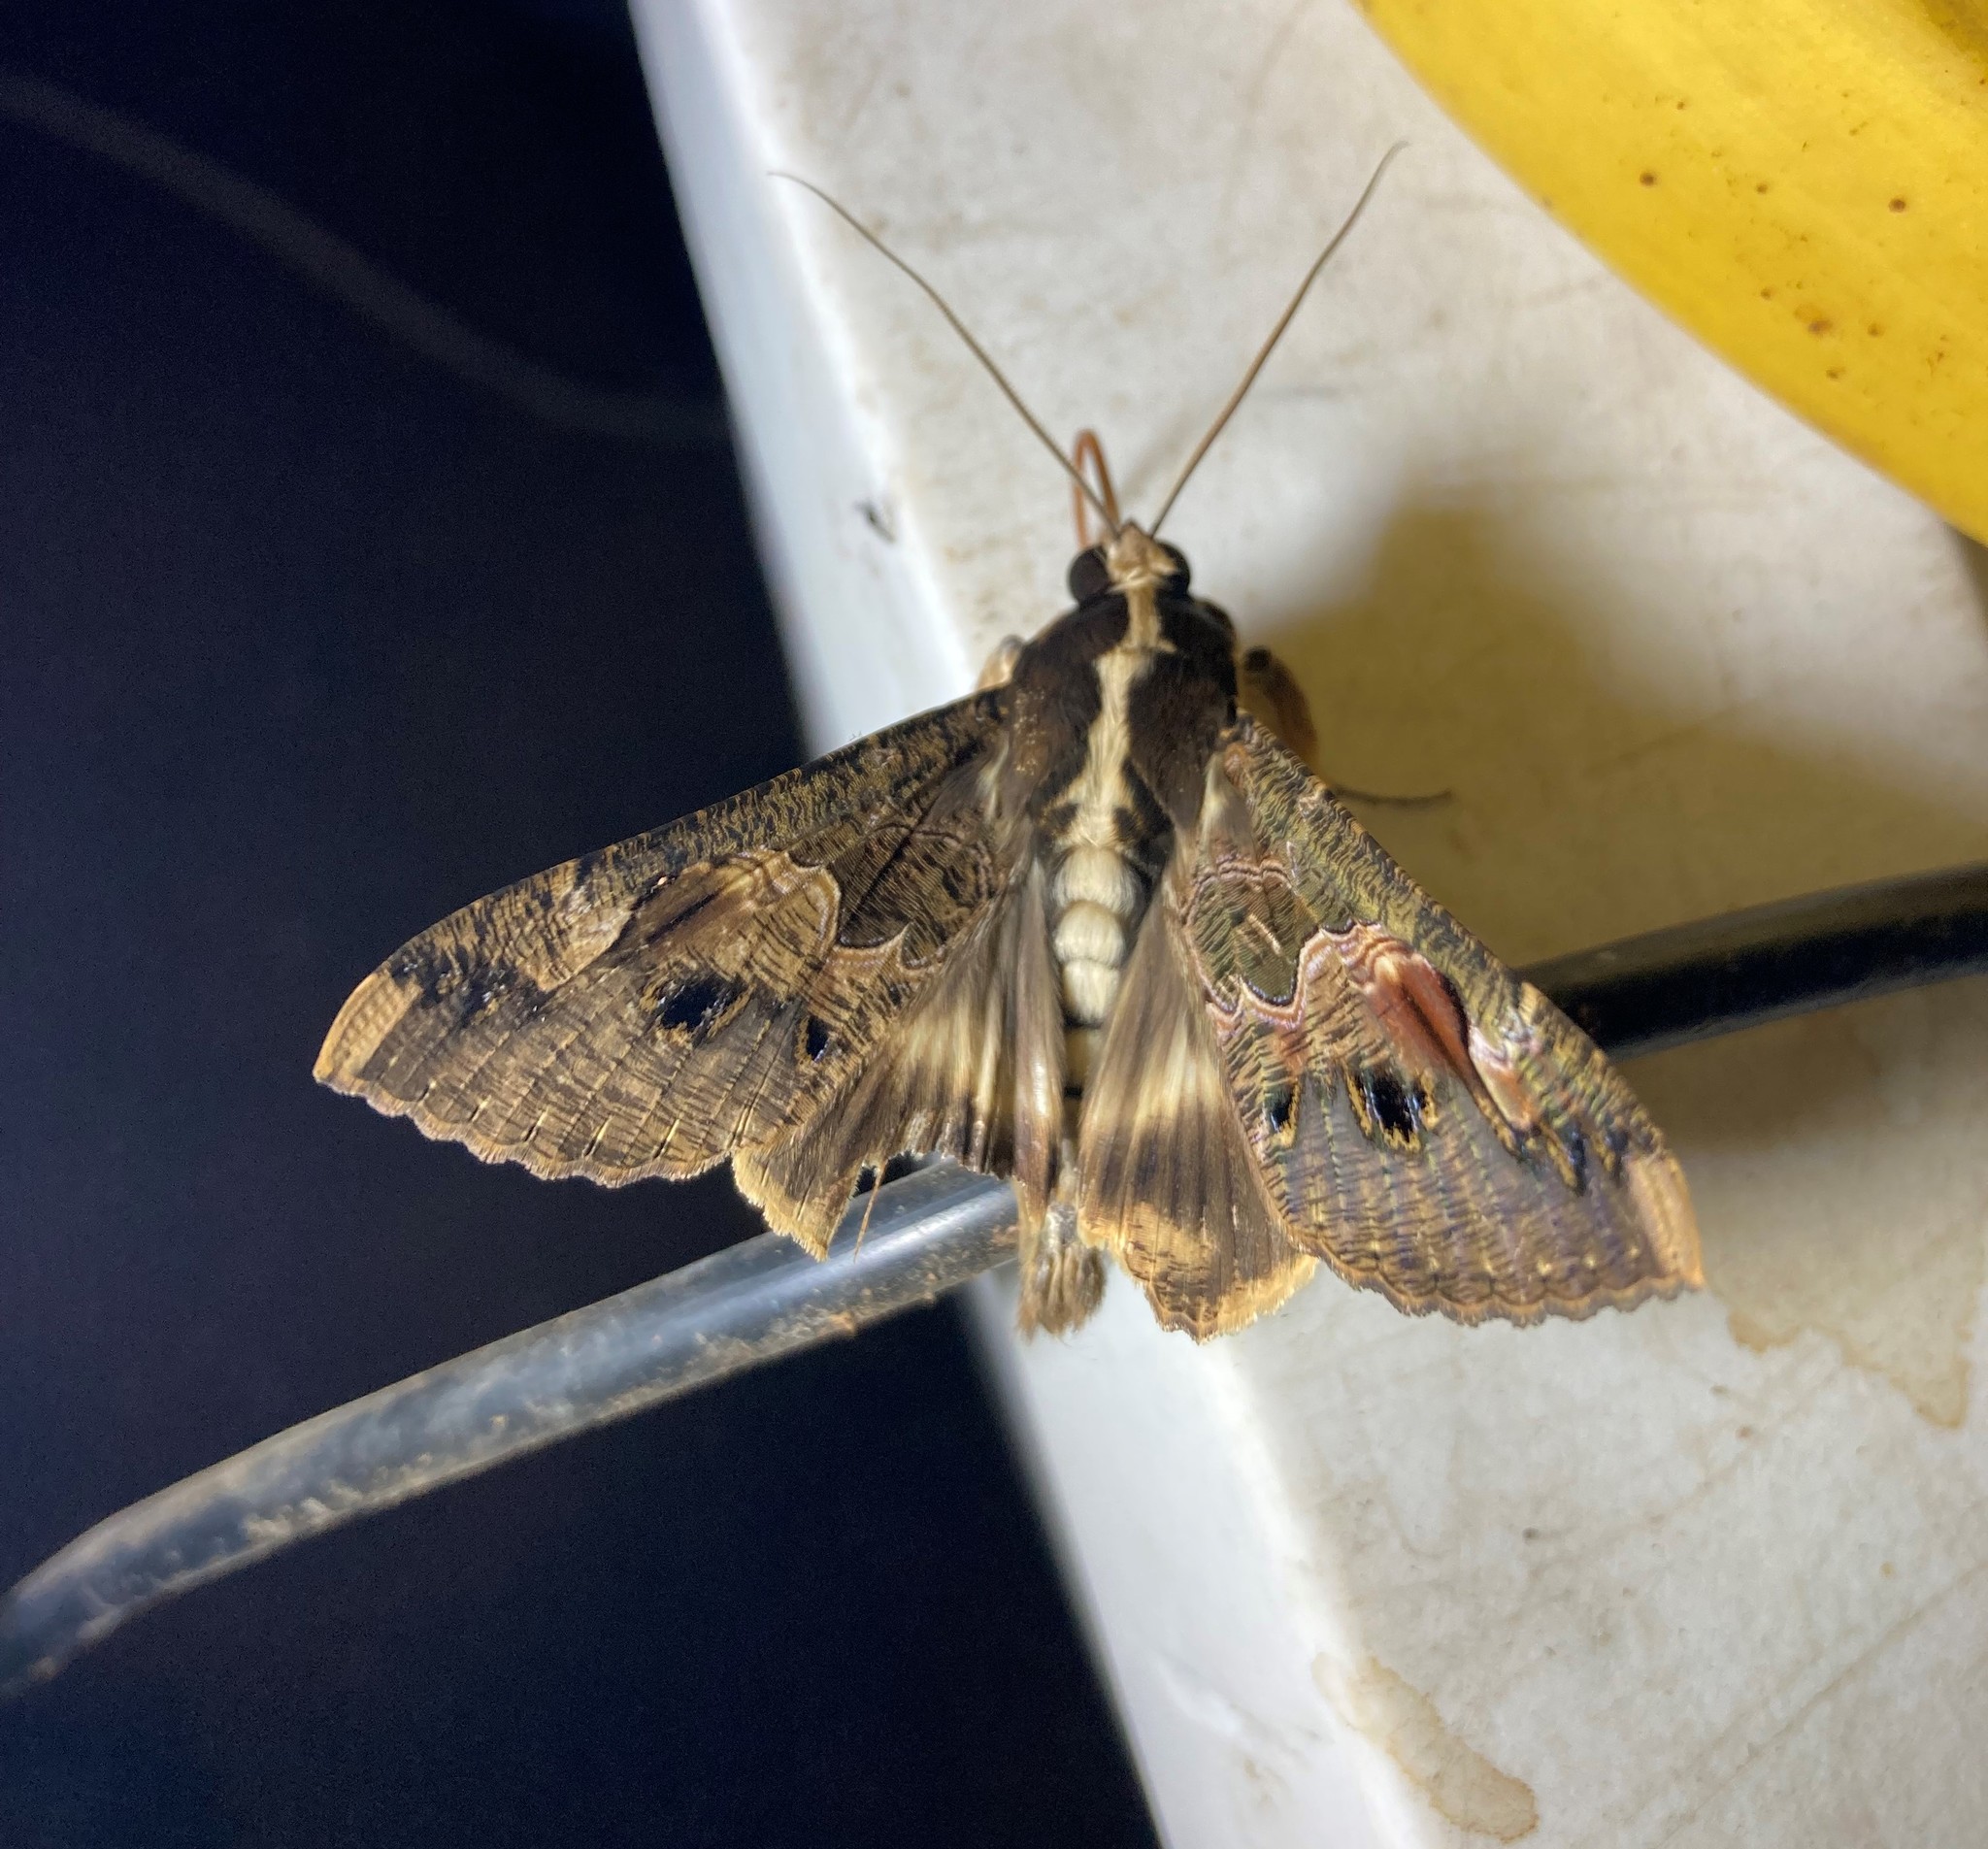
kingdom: Animalia
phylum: Arthropoda
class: Insecta
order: Lepidoptera
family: Erebidae
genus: Sphingomorpha
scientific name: Sphingomorpha chlorea
